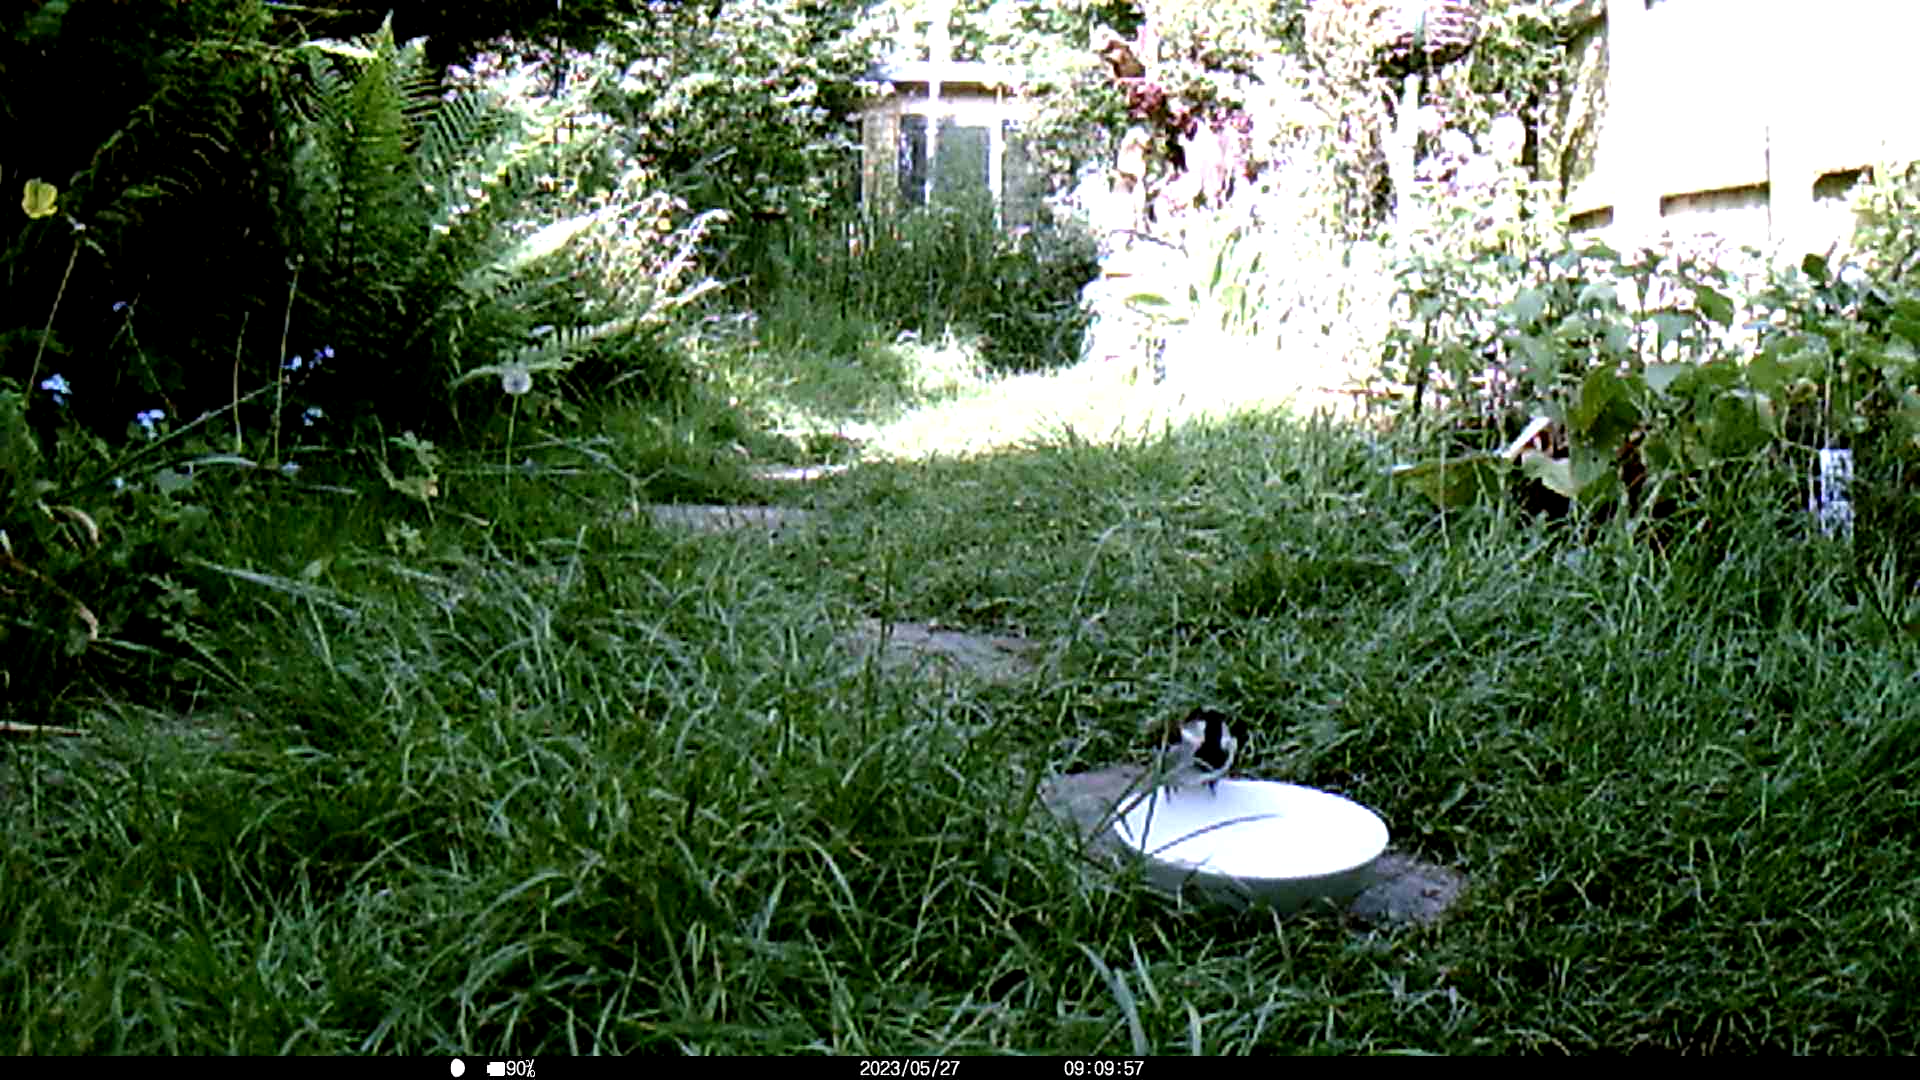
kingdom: Animalia
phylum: Chordata
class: Aves
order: Passeriformes
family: Passeridae
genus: Passer
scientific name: Passer domesticus
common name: House sparrow
